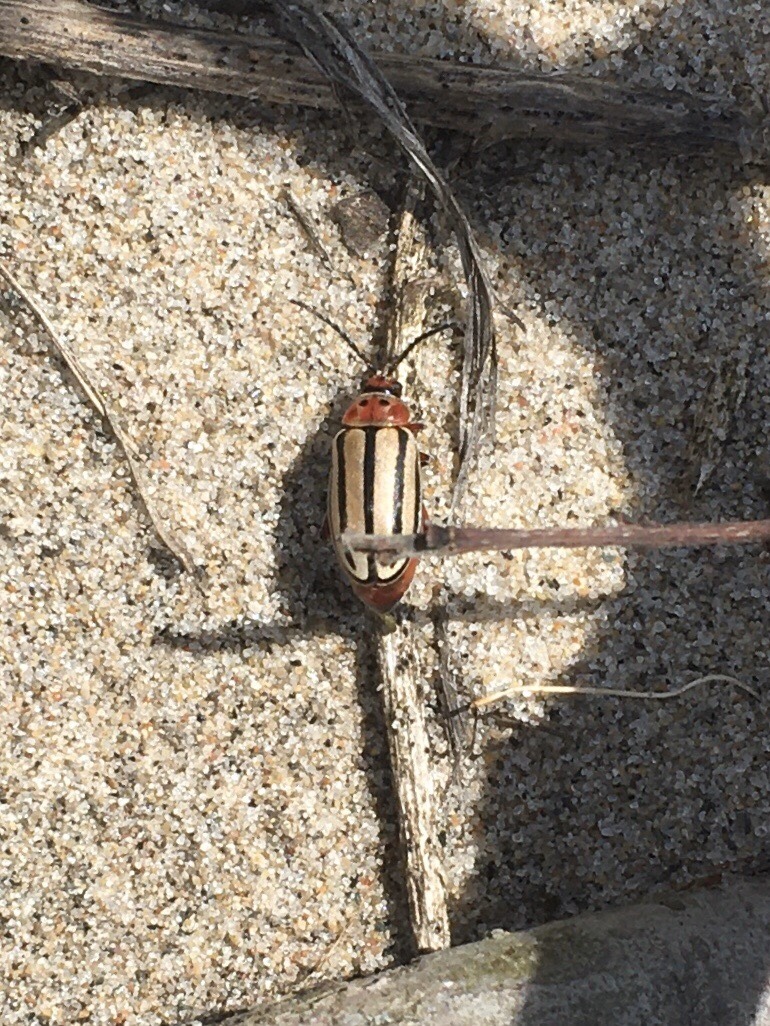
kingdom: Animalia
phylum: Arthropoda
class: Insecta
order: Coleoptera
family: Chrysomelidae
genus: Disonycha
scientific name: Disonycha alternata
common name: Striped willow leaf beetle
